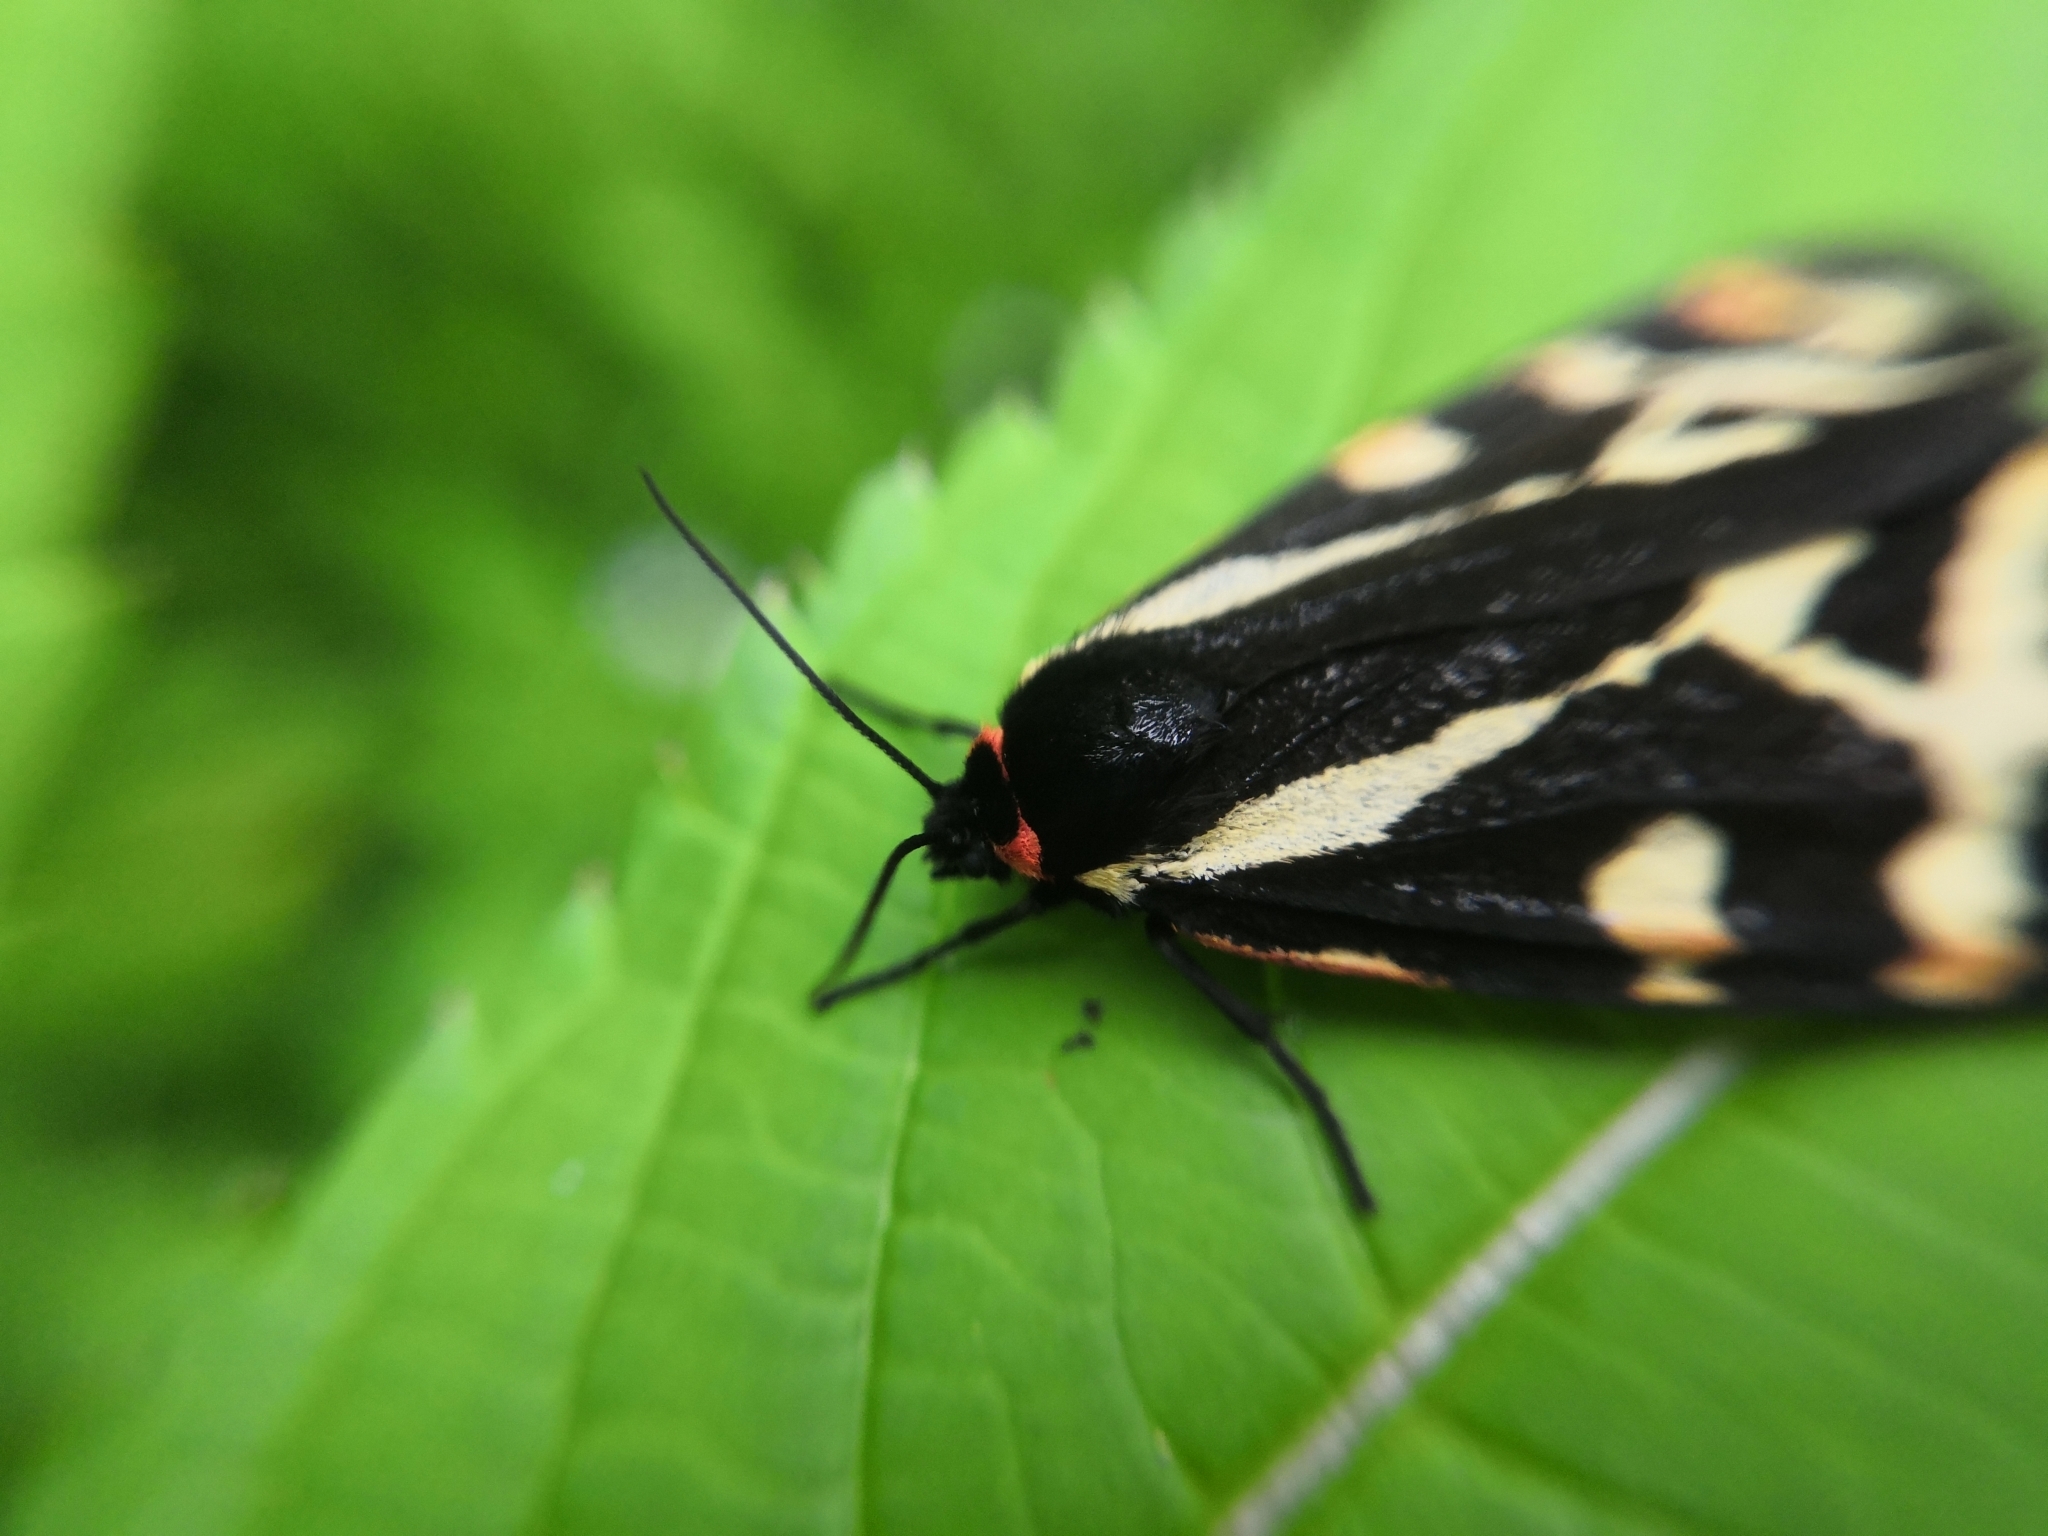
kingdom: Animalia
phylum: Arthropoda
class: Insecta
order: Lepidoptera
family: Erebidae
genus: Parasemia
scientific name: Parasemia plantaginis
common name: Wood tiger
